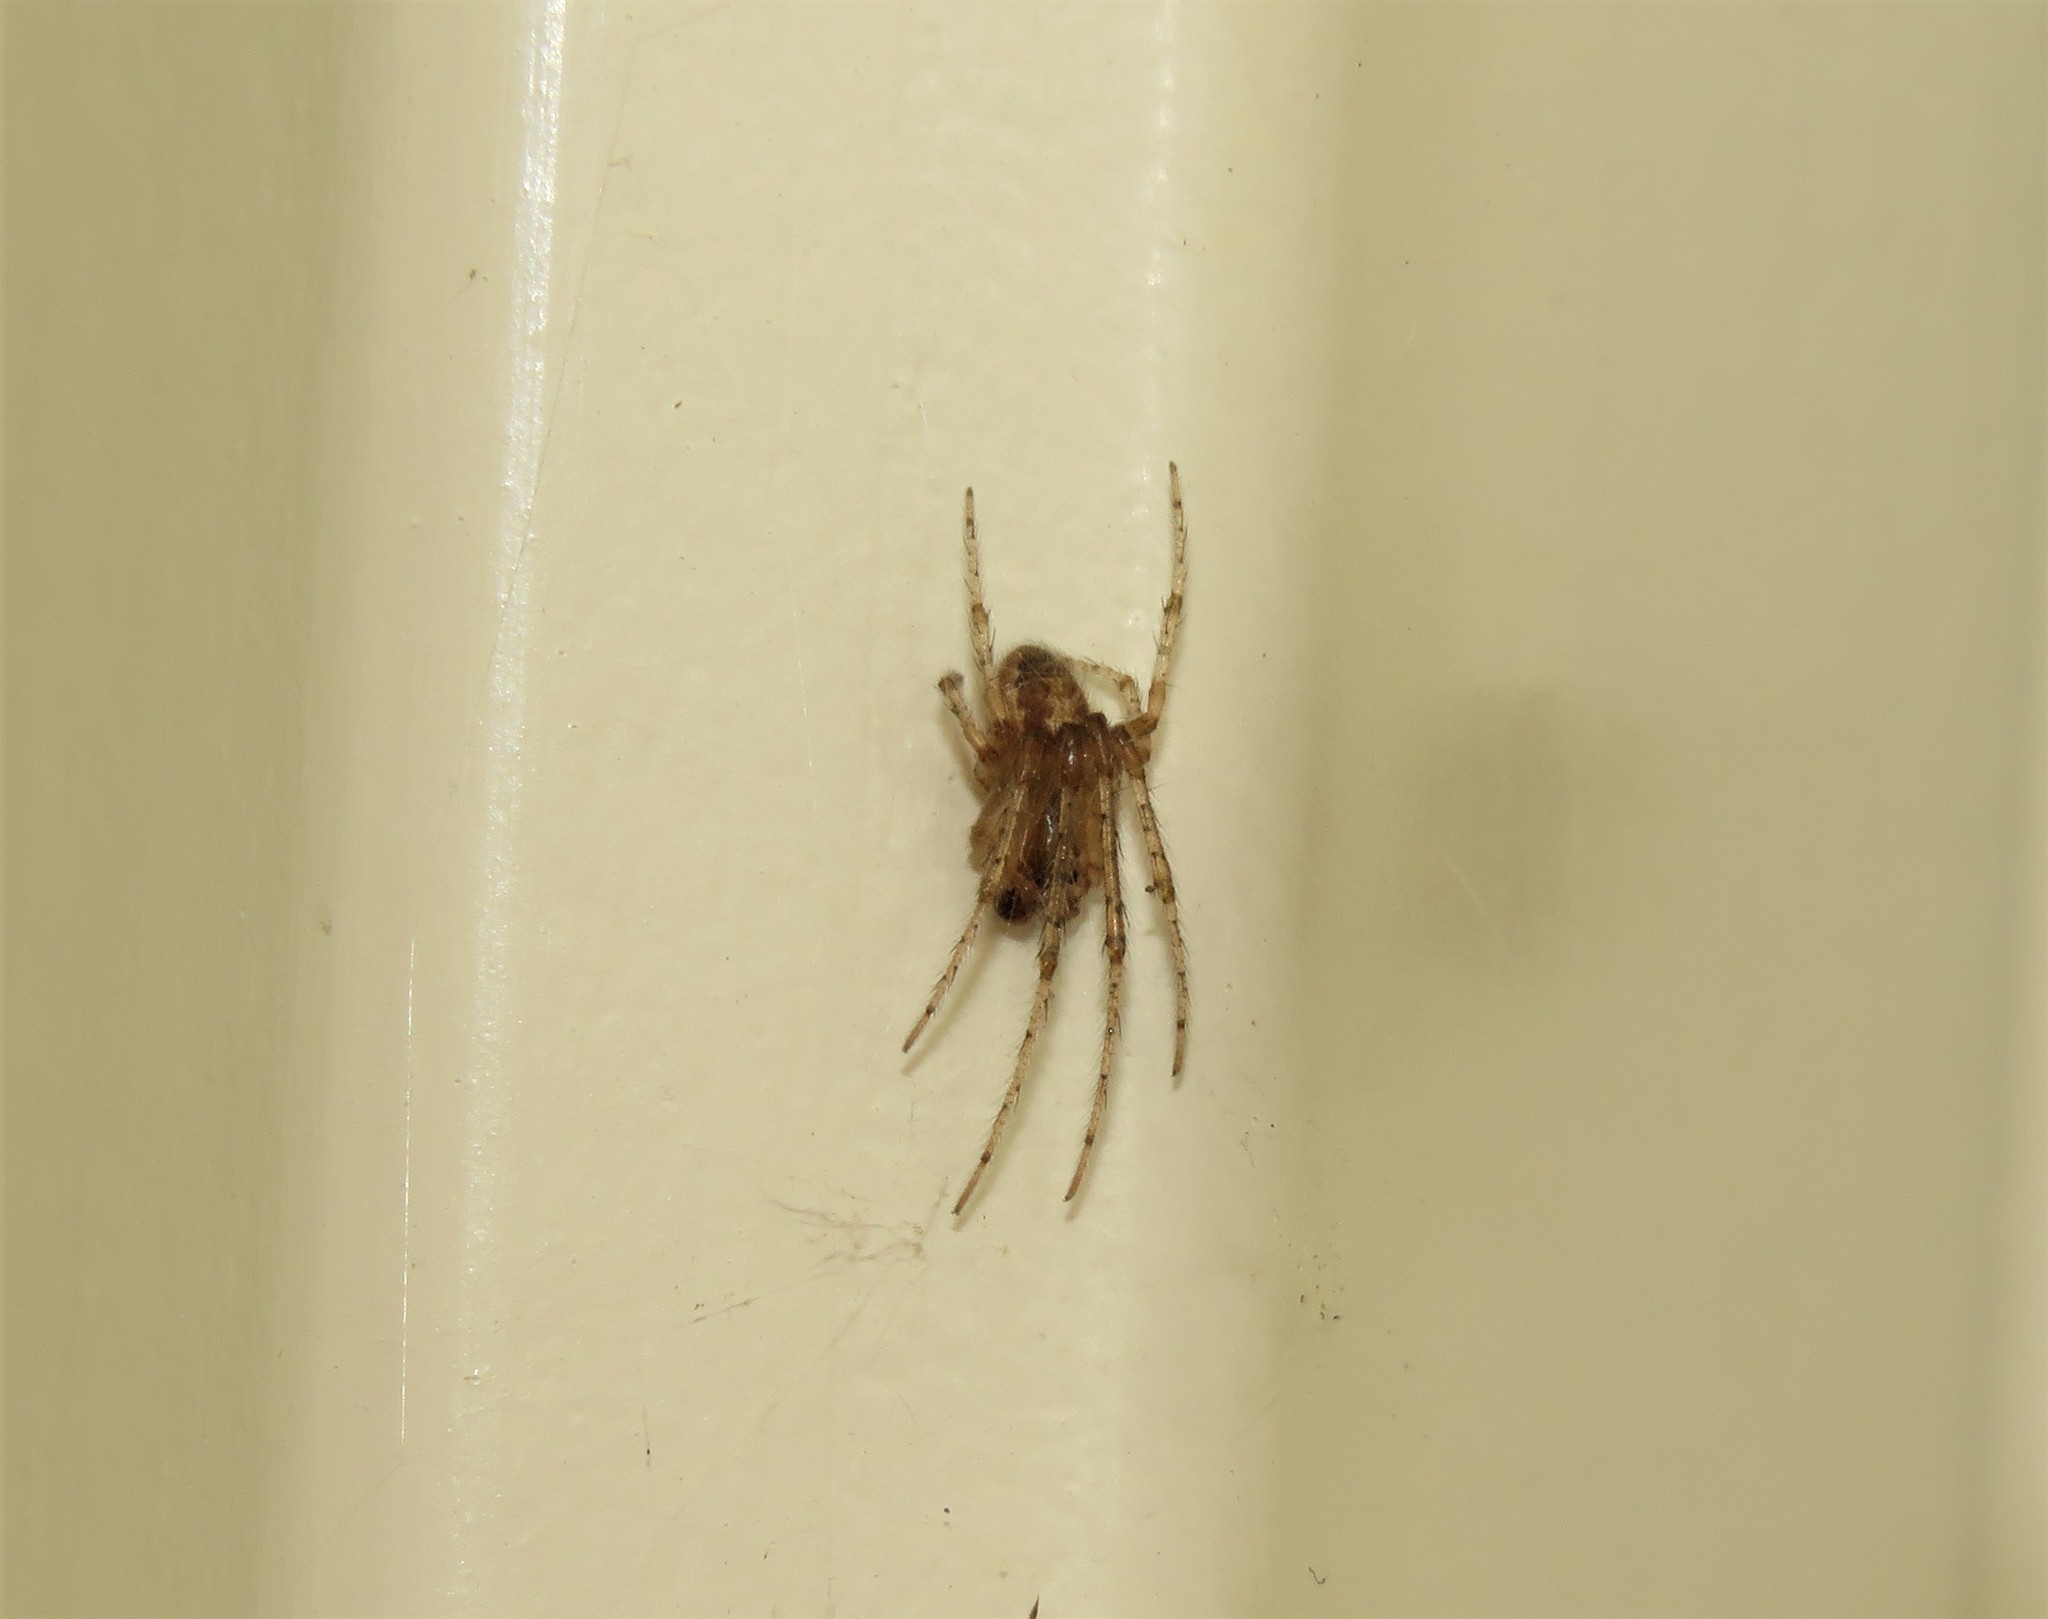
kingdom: Animalia
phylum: Arthropoda
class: Arachnida
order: Araneae
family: Araneidae
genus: Zygiella
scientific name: Zygiella x-notata
